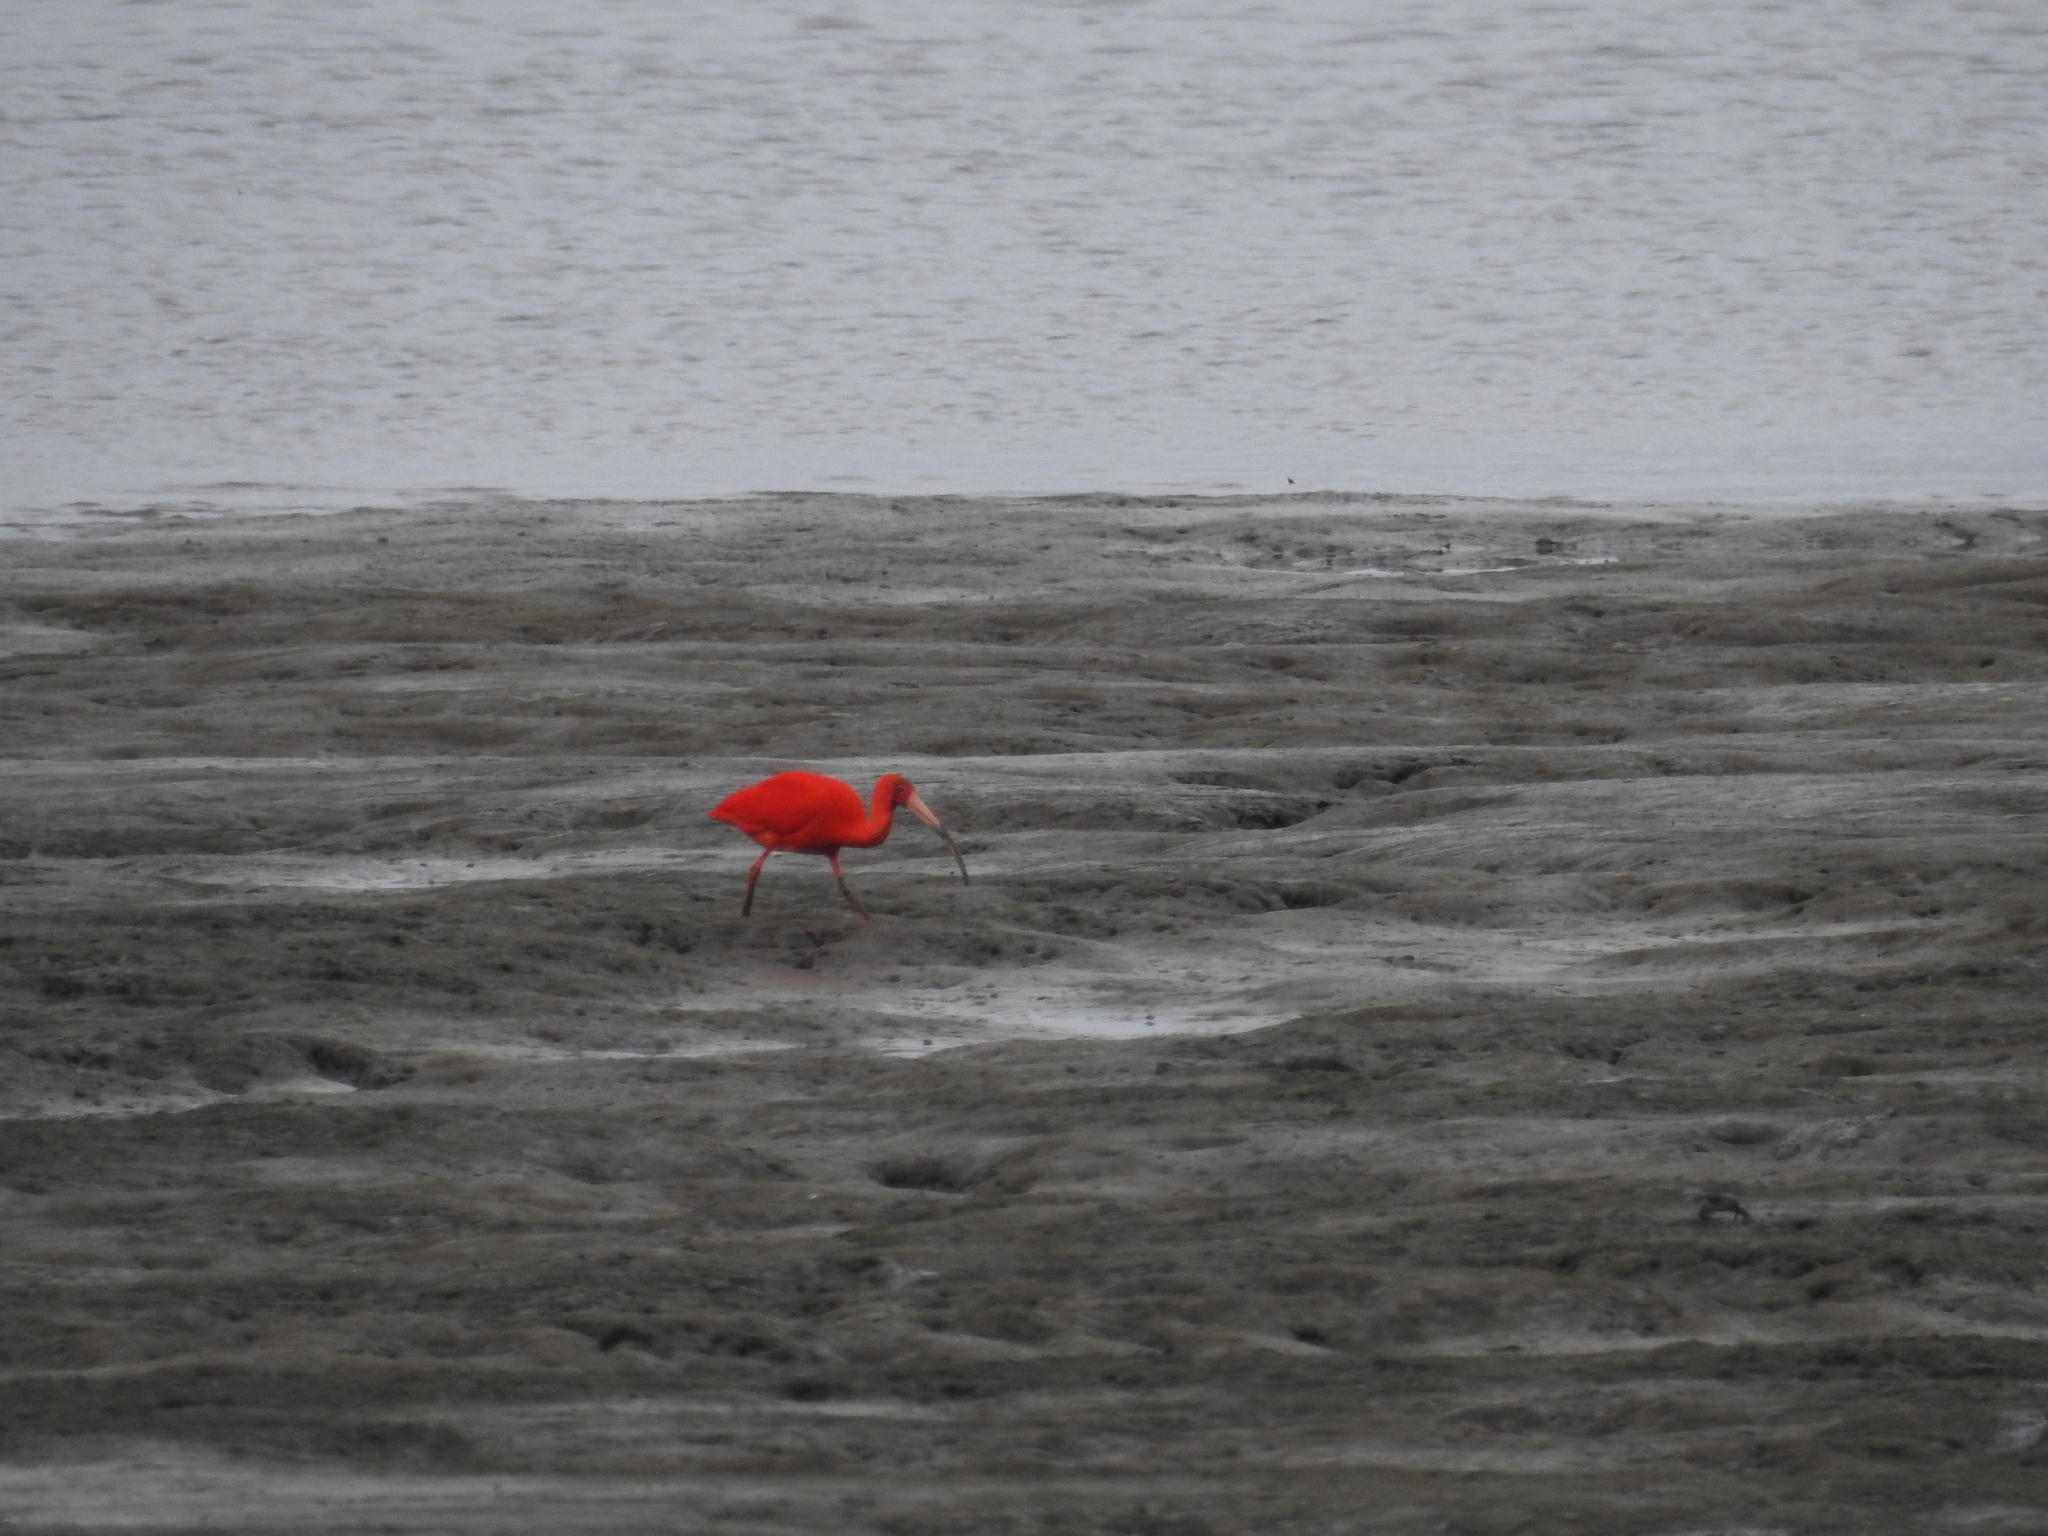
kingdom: Animalia
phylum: Chordata
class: Aves
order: Pelecaniformes
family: Threskiornithidae
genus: Eudocimus
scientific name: Eudocimus ruber
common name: Scarlet ibis
